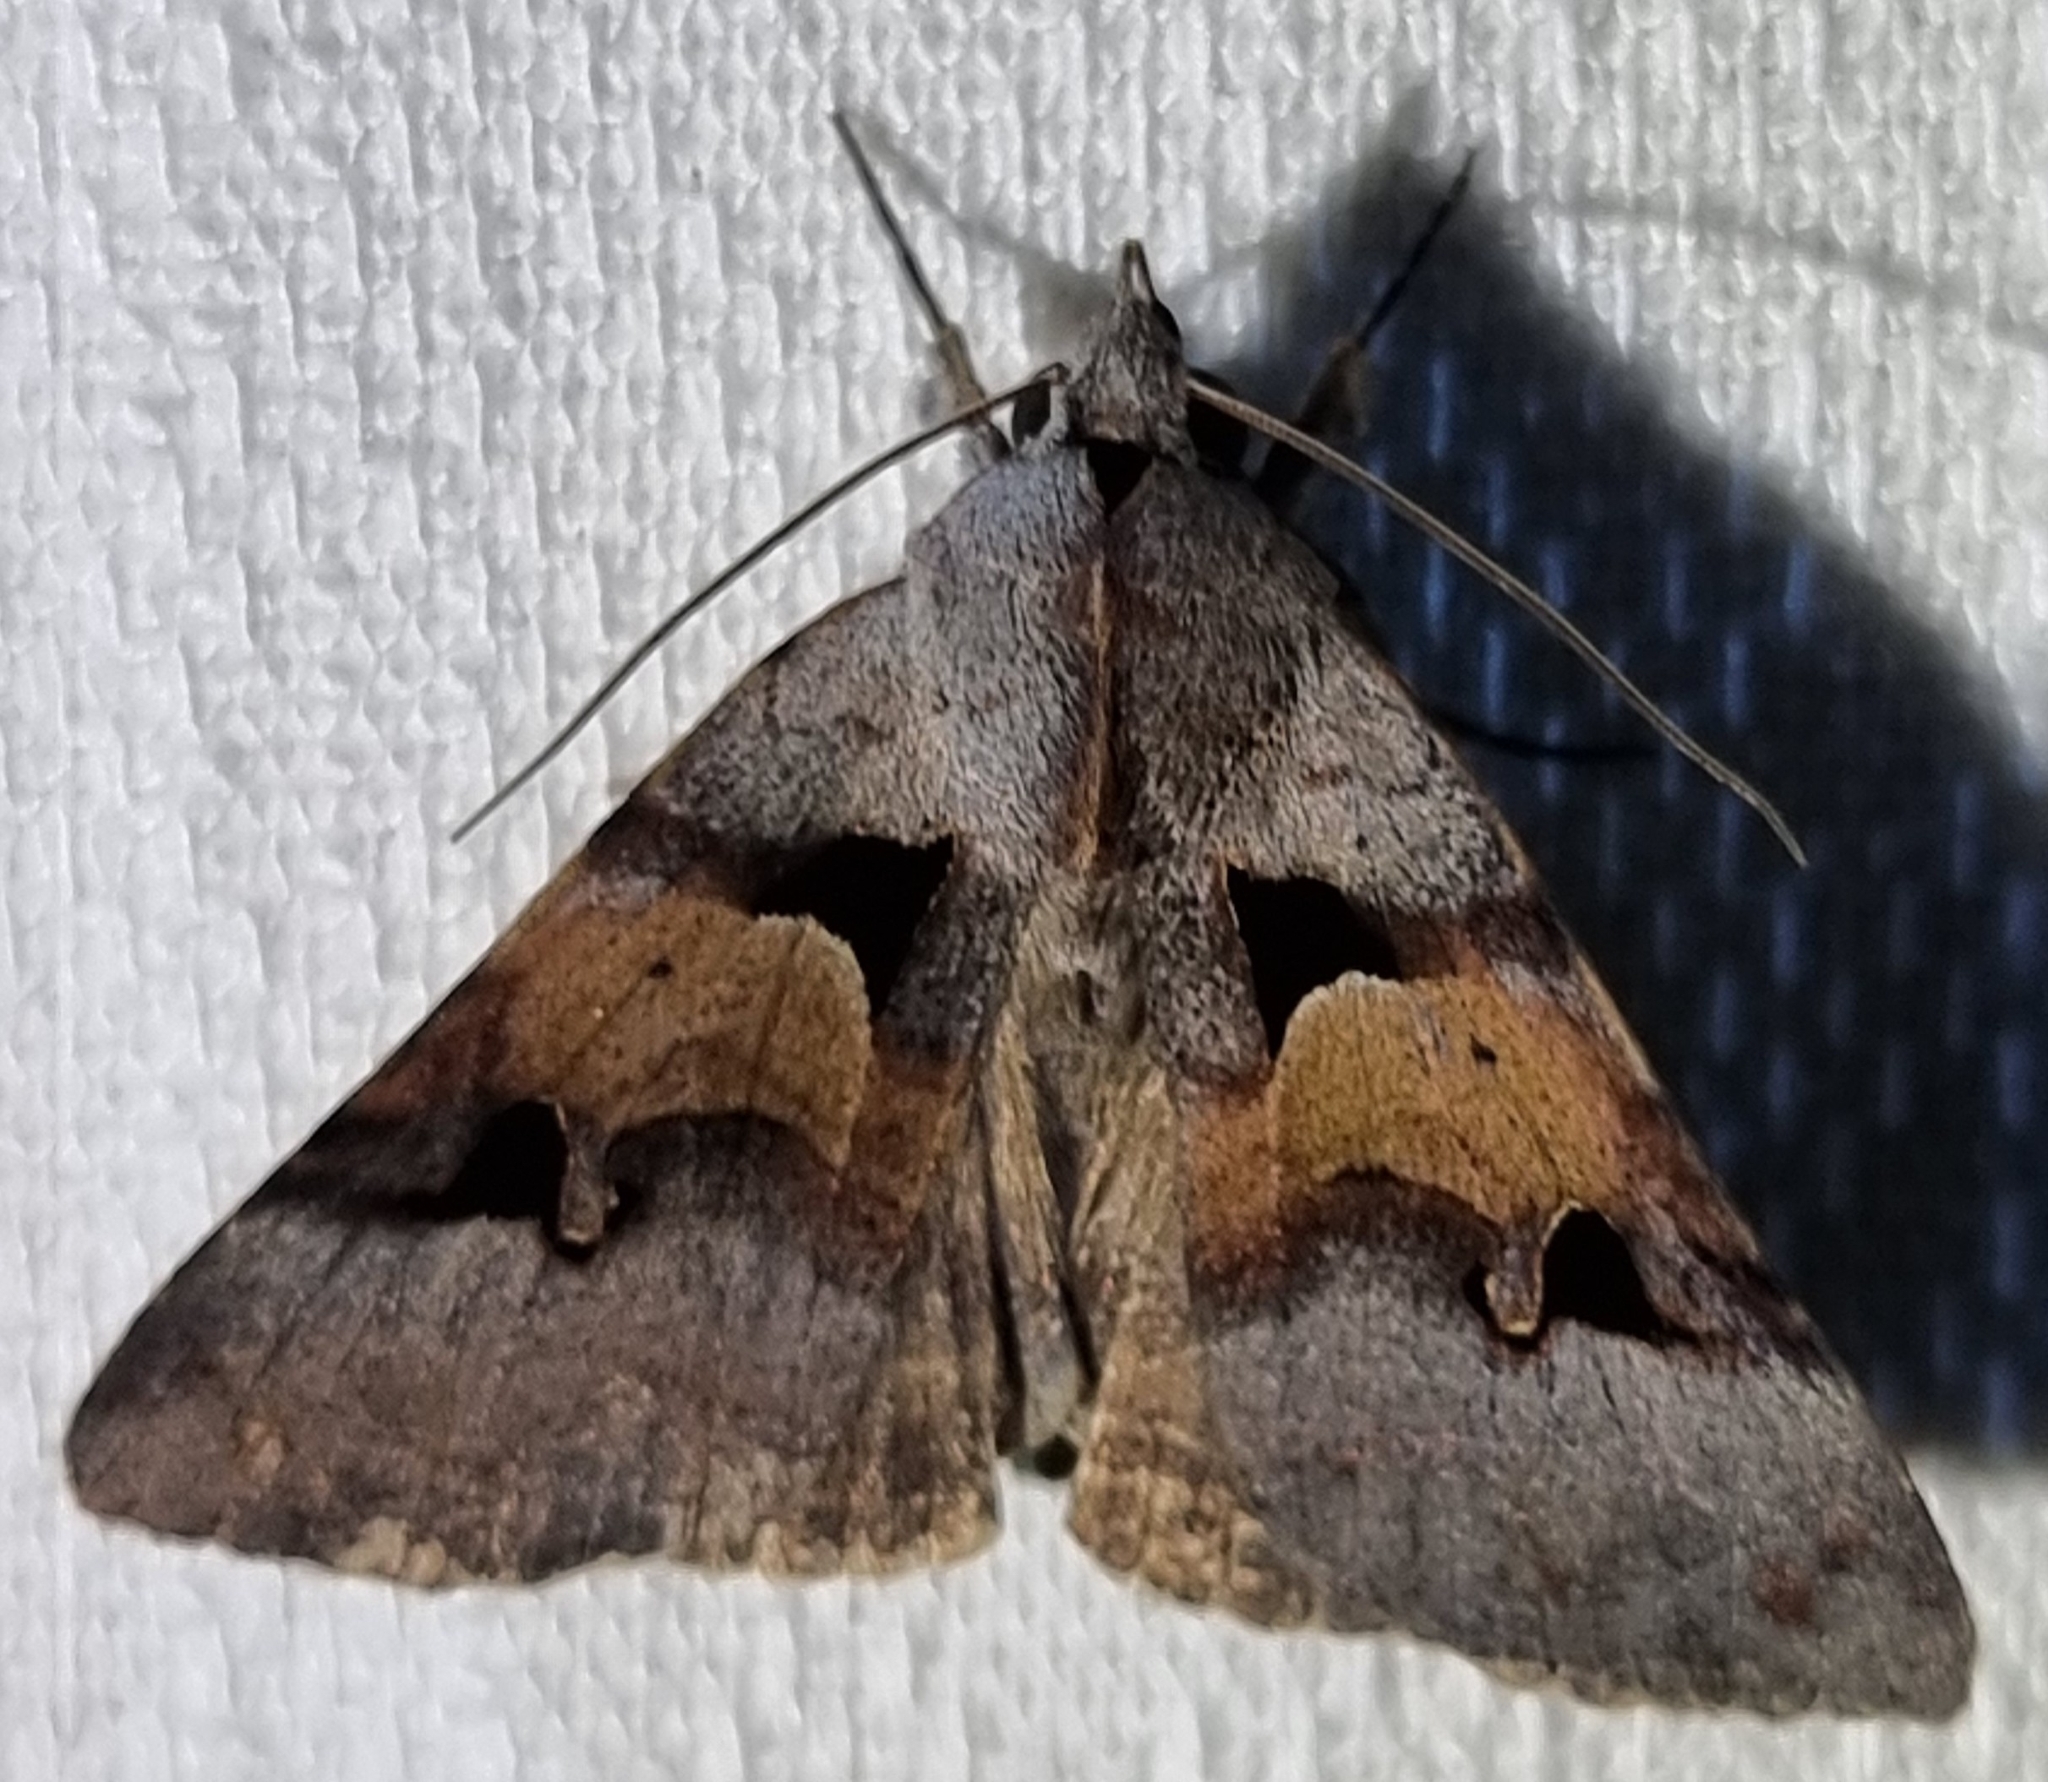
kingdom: Animalia
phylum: Arthropoda
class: Insecta
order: Lepidoptera
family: Erebidae
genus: Avatha
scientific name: Avatha discolor
